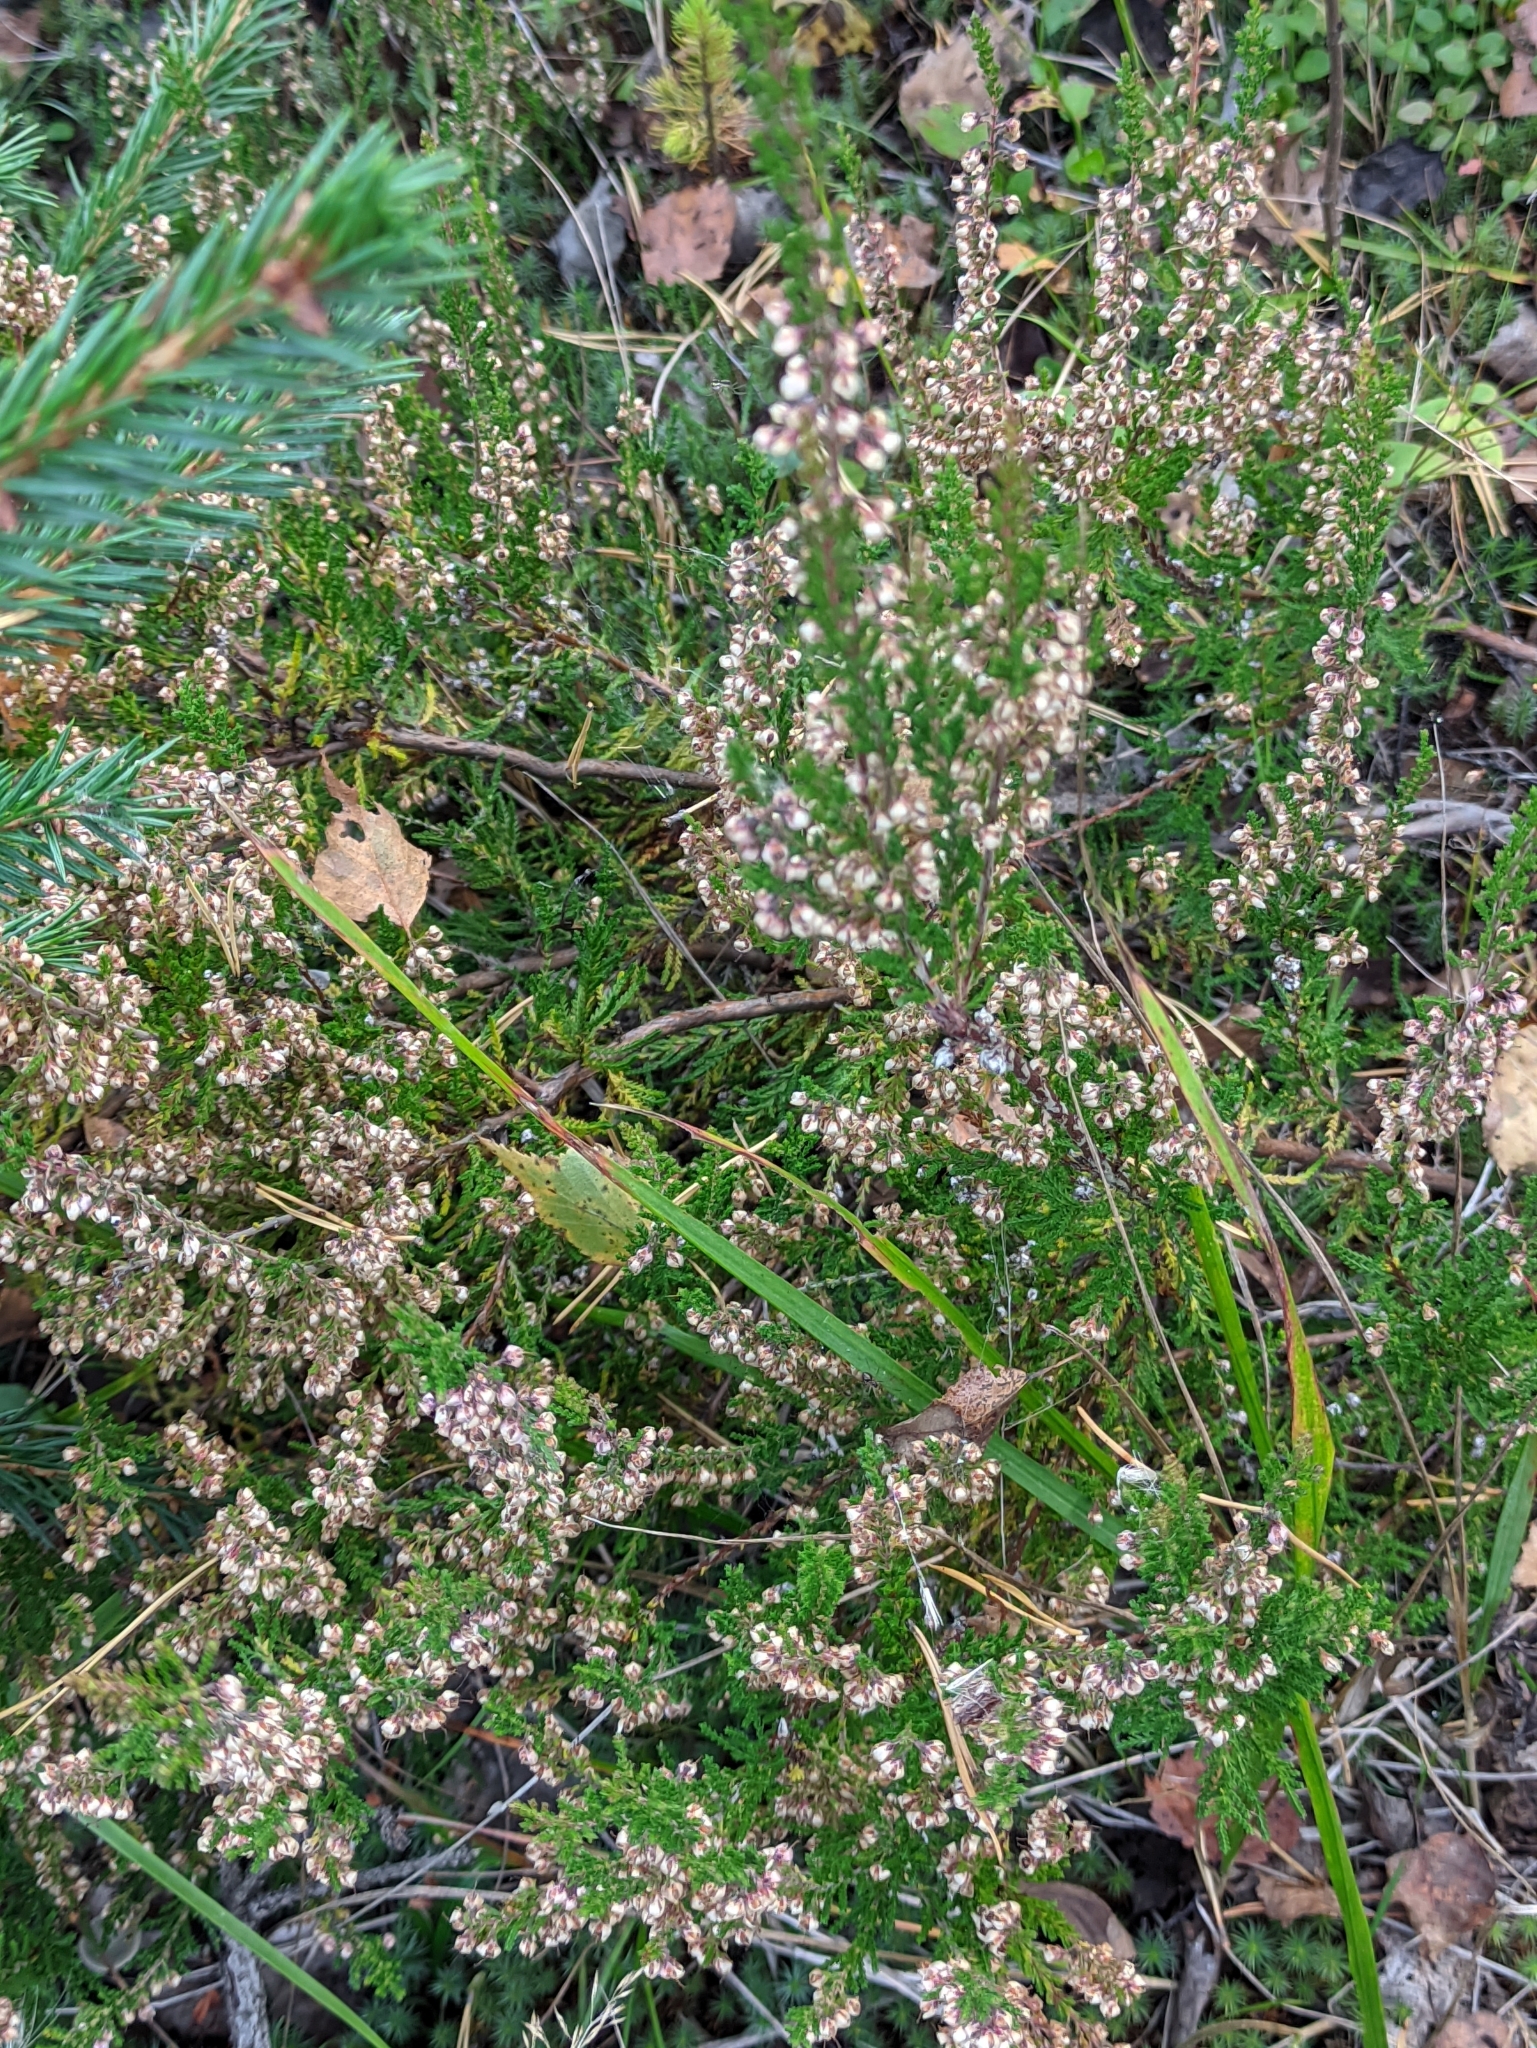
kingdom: Plantae
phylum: Tracheophyta
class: Magnoliopsida
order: Ericales
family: Ericaceae
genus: Calluna
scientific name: Calluna vulgaris
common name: Heather
